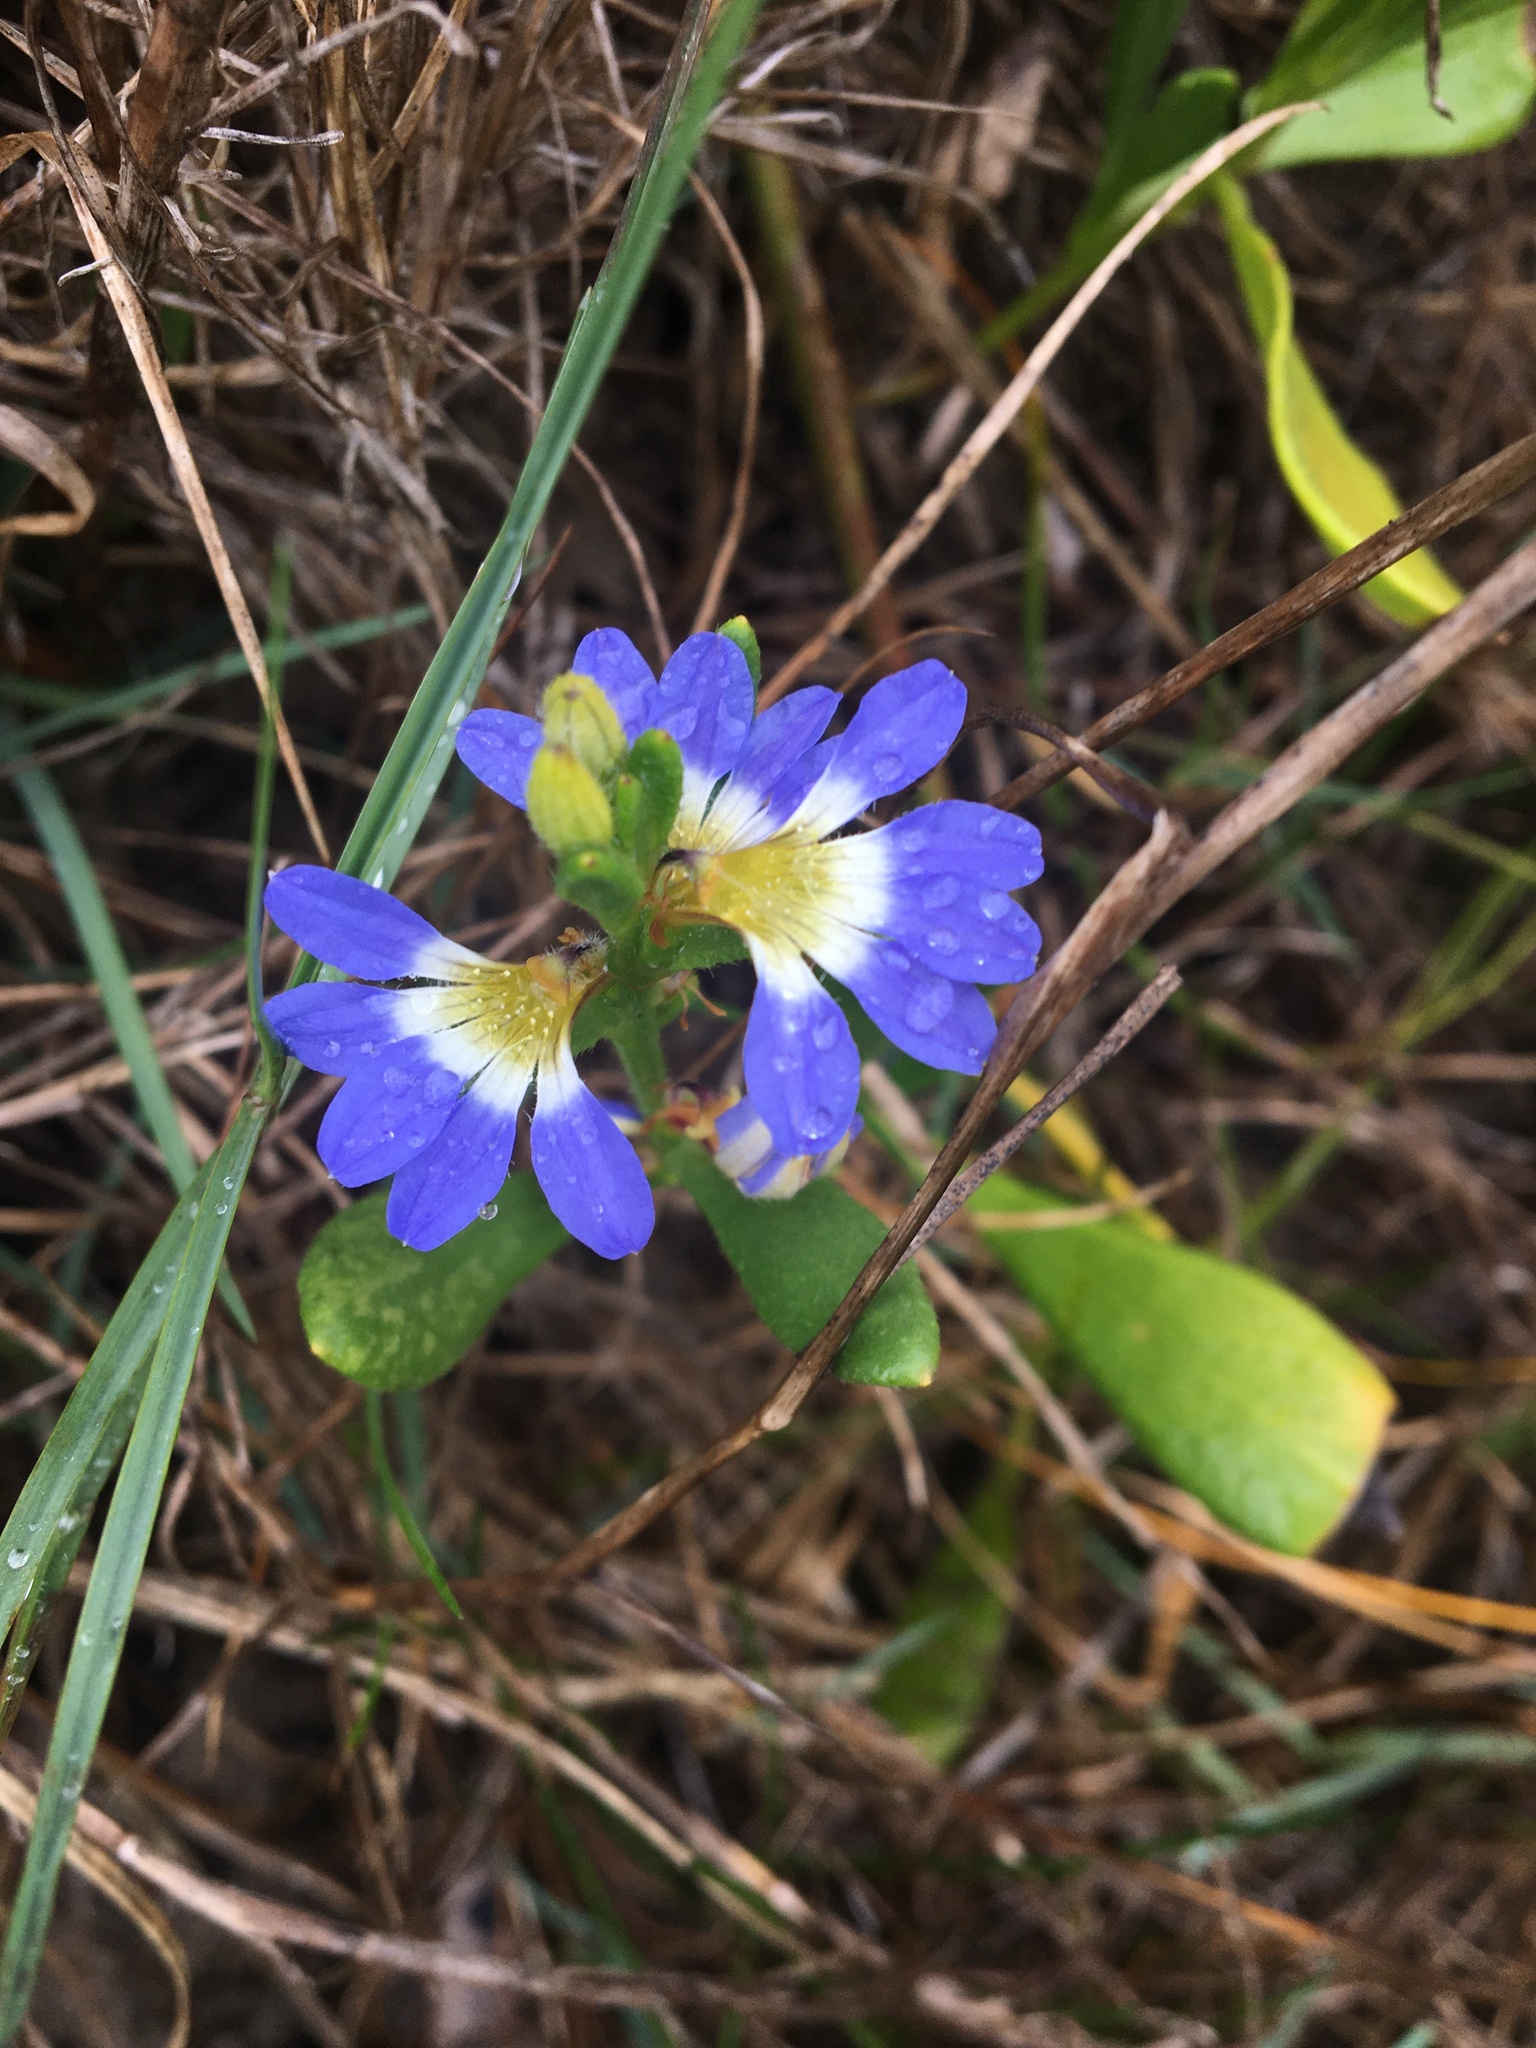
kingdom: Plantae
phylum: Tracheophyta
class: Magnoliopsida
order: Asterales
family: Goodeniaceae
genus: Scaevola
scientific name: Scaevola calendulacea
